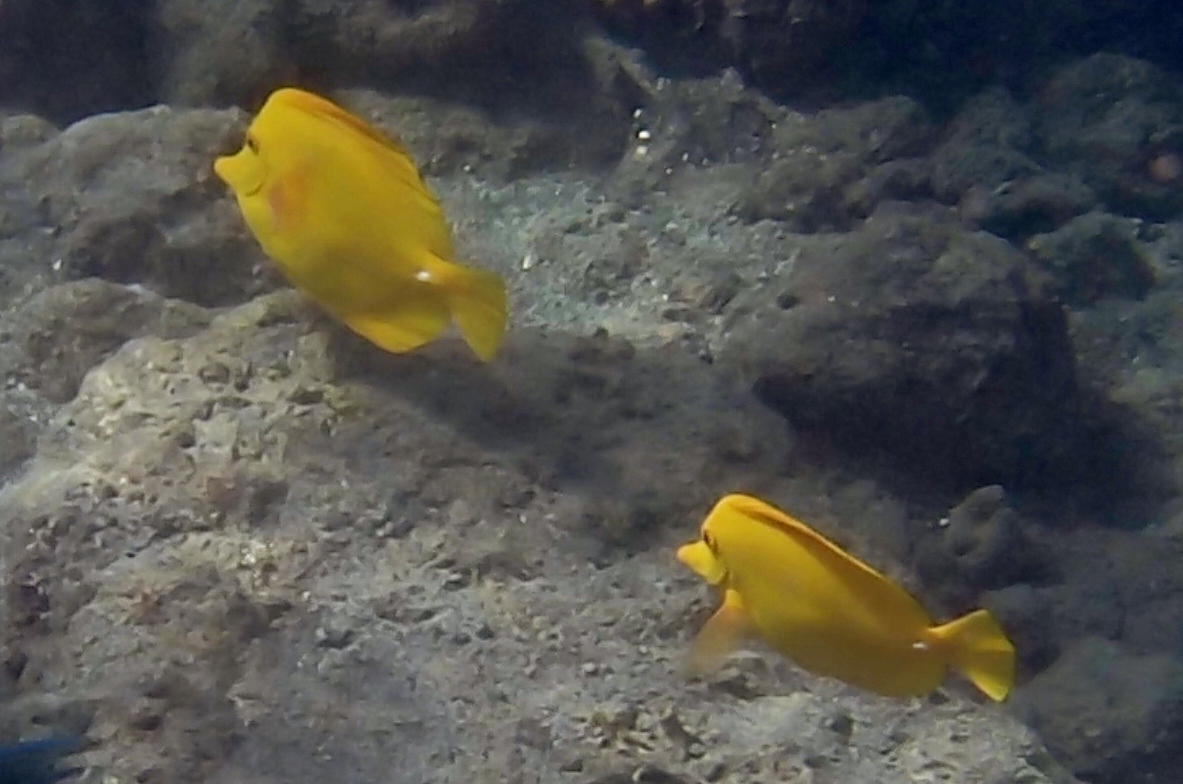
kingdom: Animalia
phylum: Chordata
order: Perciformes
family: Acanthuridae
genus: Zebrasoma
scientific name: Zebrasoma flavescens
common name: Yellow tang
